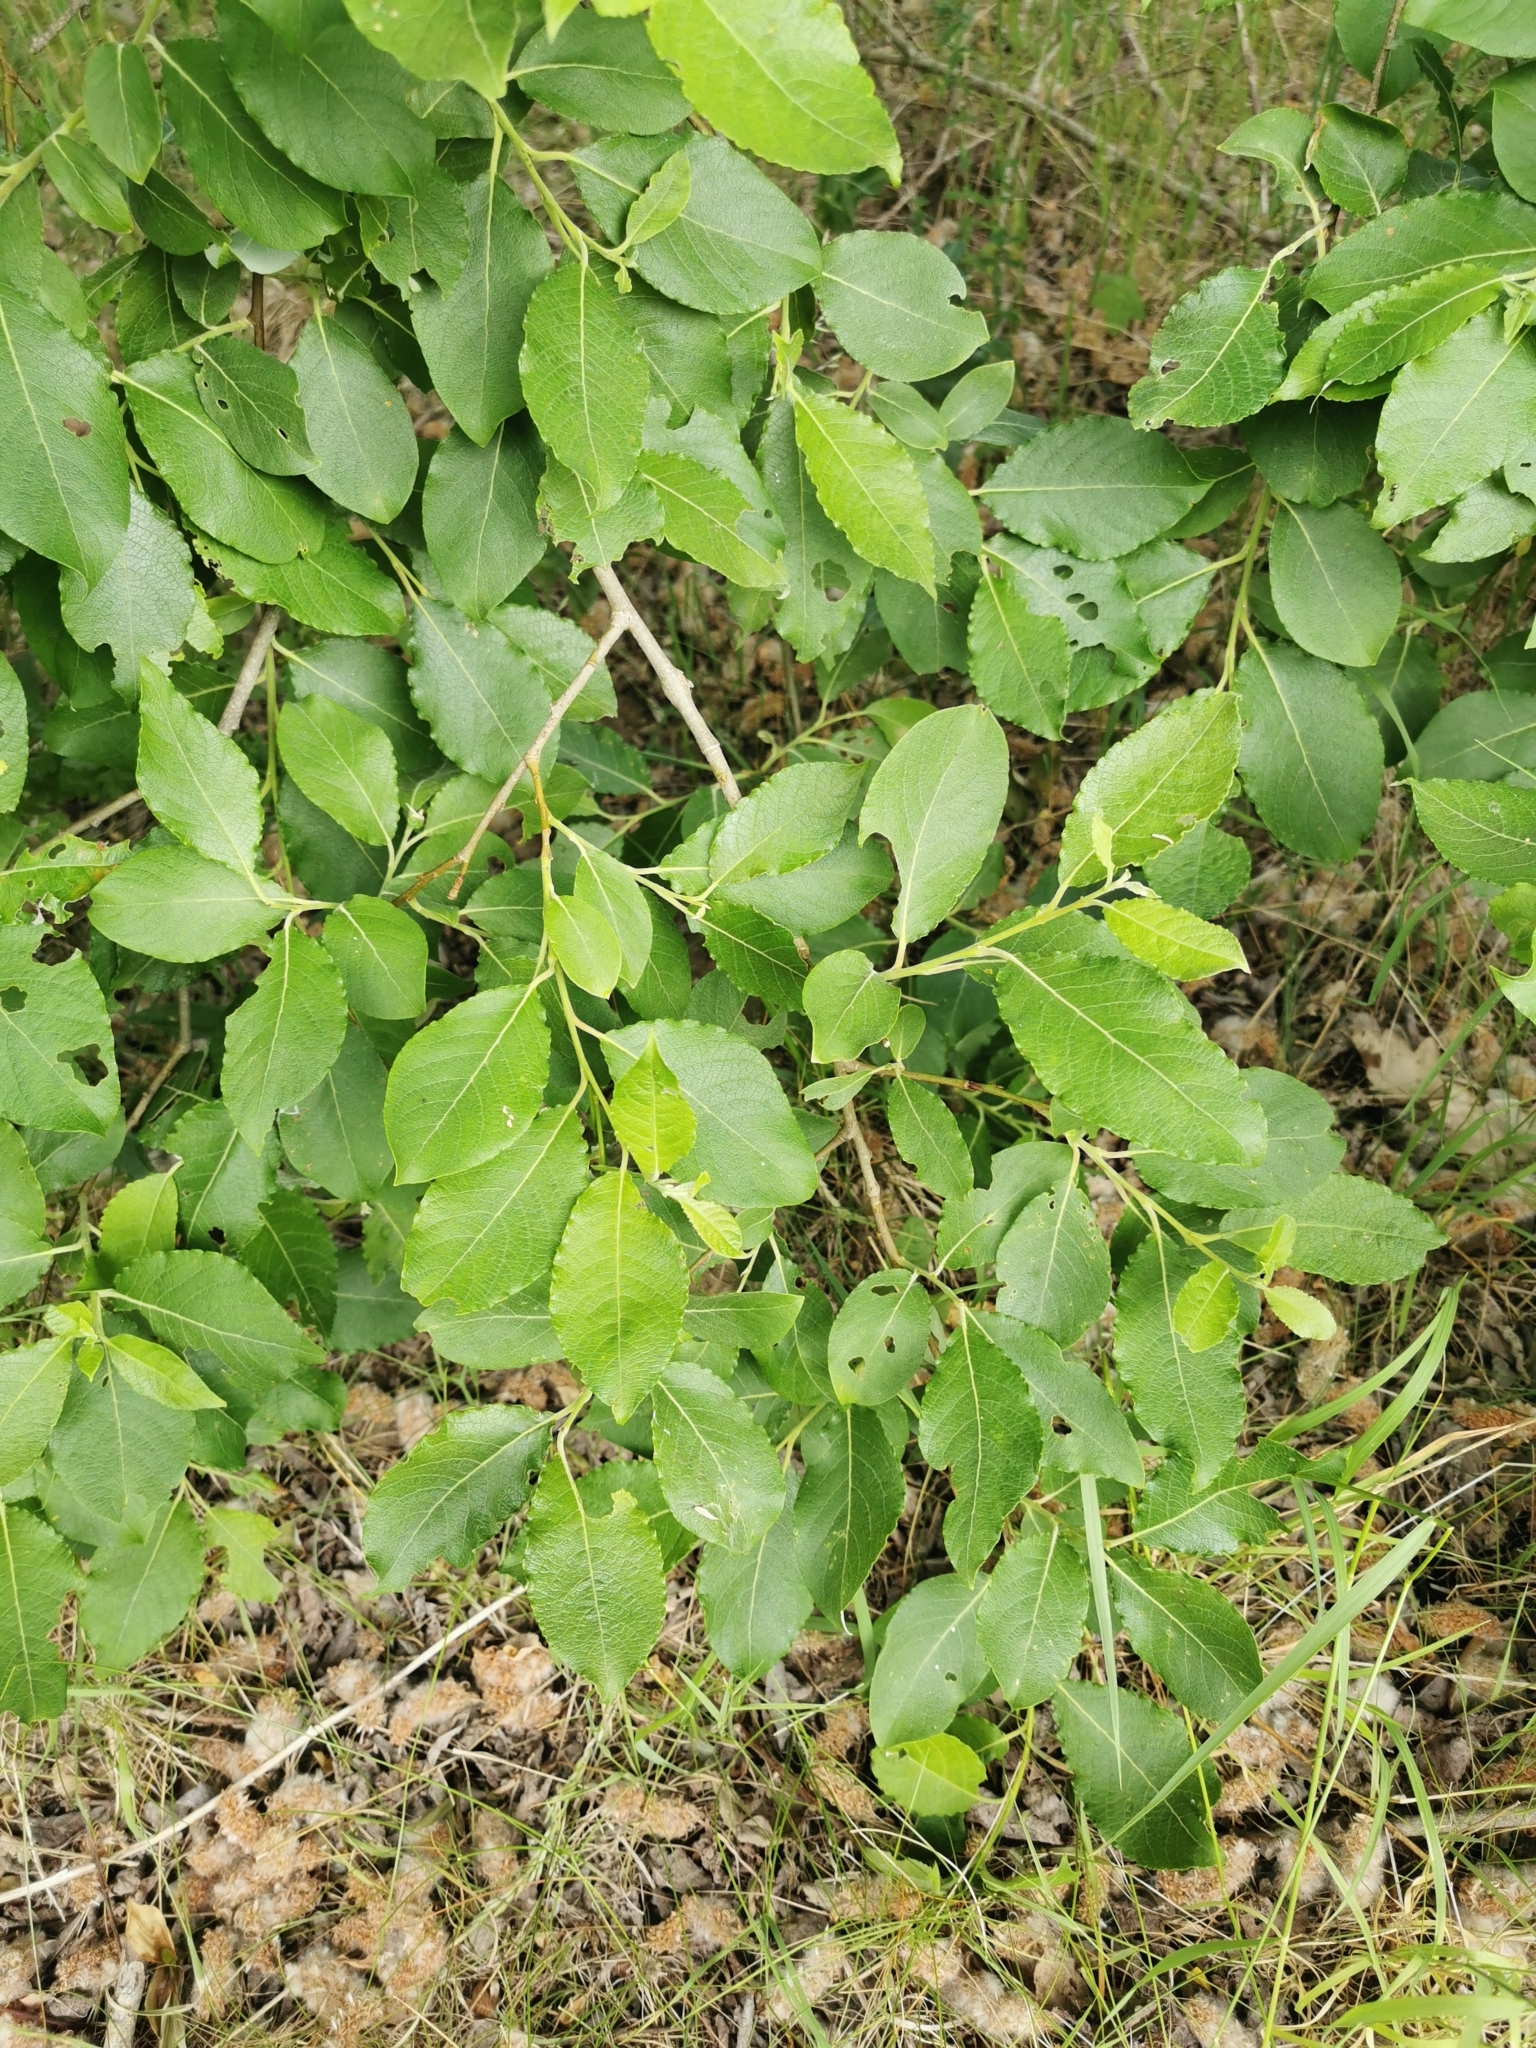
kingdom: Plantae
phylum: Tracheophyta
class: Magnoliopsida
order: Malpighiales
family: Salicaceae
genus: Salix
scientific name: Salix caprea
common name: Goat willow
